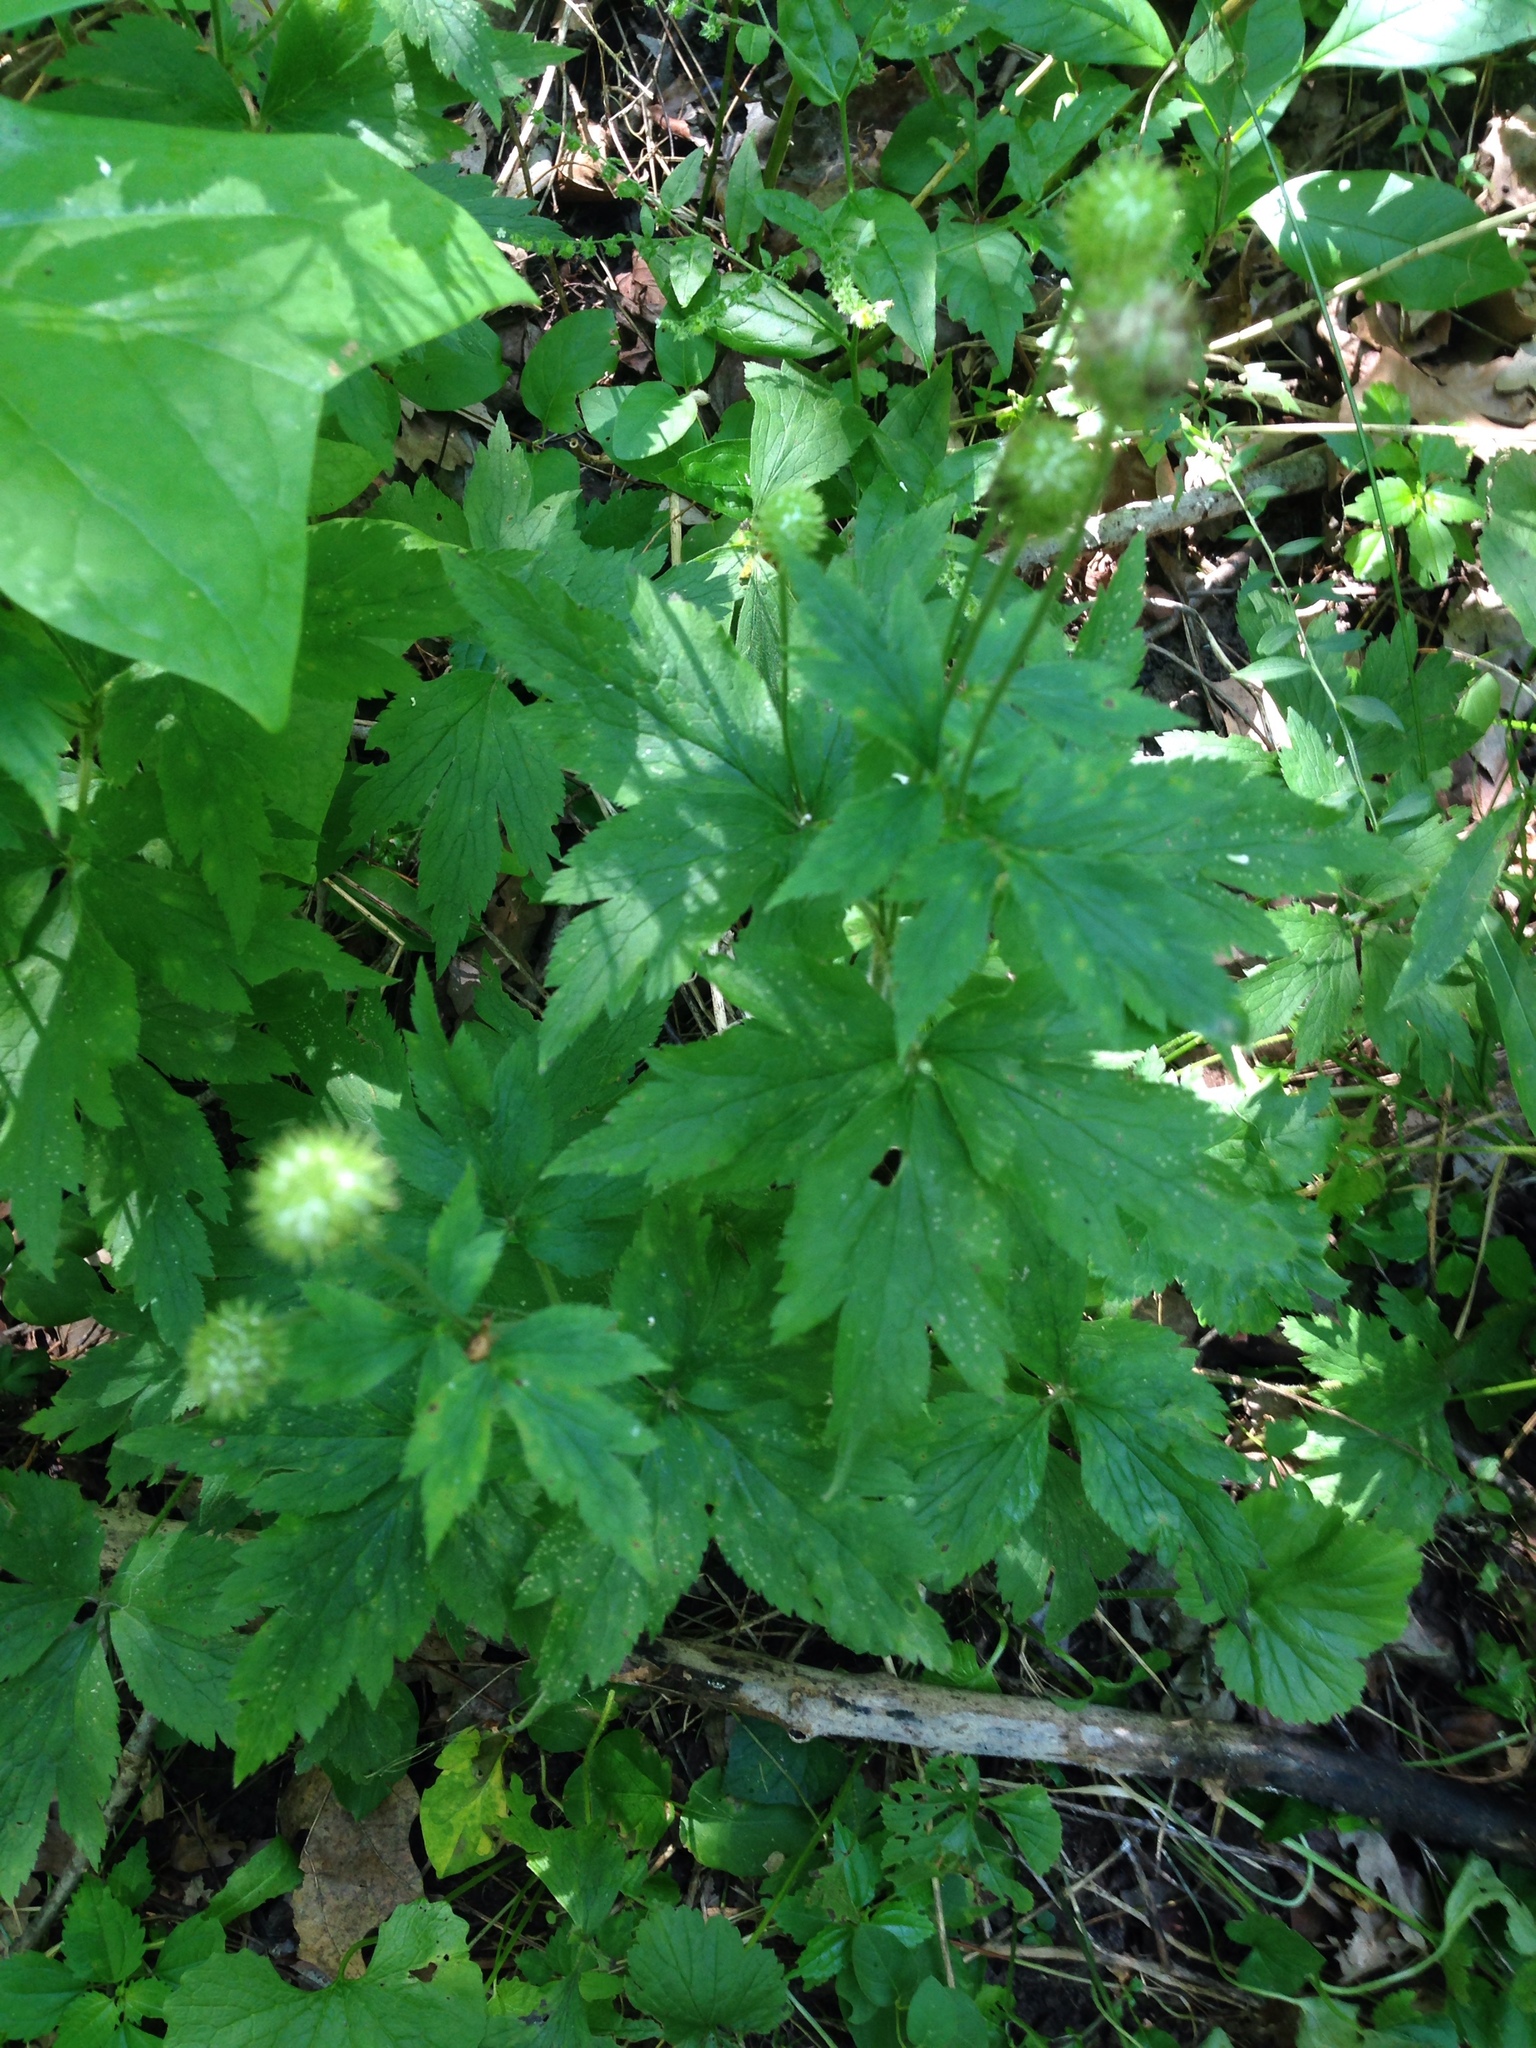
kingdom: Plantae
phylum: Tracheophyta
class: Magnoliopsida
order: Ranunculales
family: Ranunculaceae
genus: Anemone
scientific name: Anemone virginiana
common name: Tall anemone
